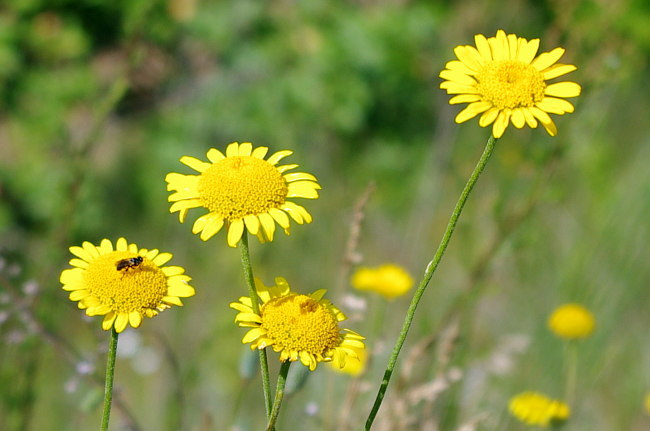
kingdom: Plantae
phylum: Tracheophyta
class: Magnoliopsida
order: Asterales
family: Asteraceae
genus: Cota
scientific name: Cota tinctoria
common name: Golden chamomile
